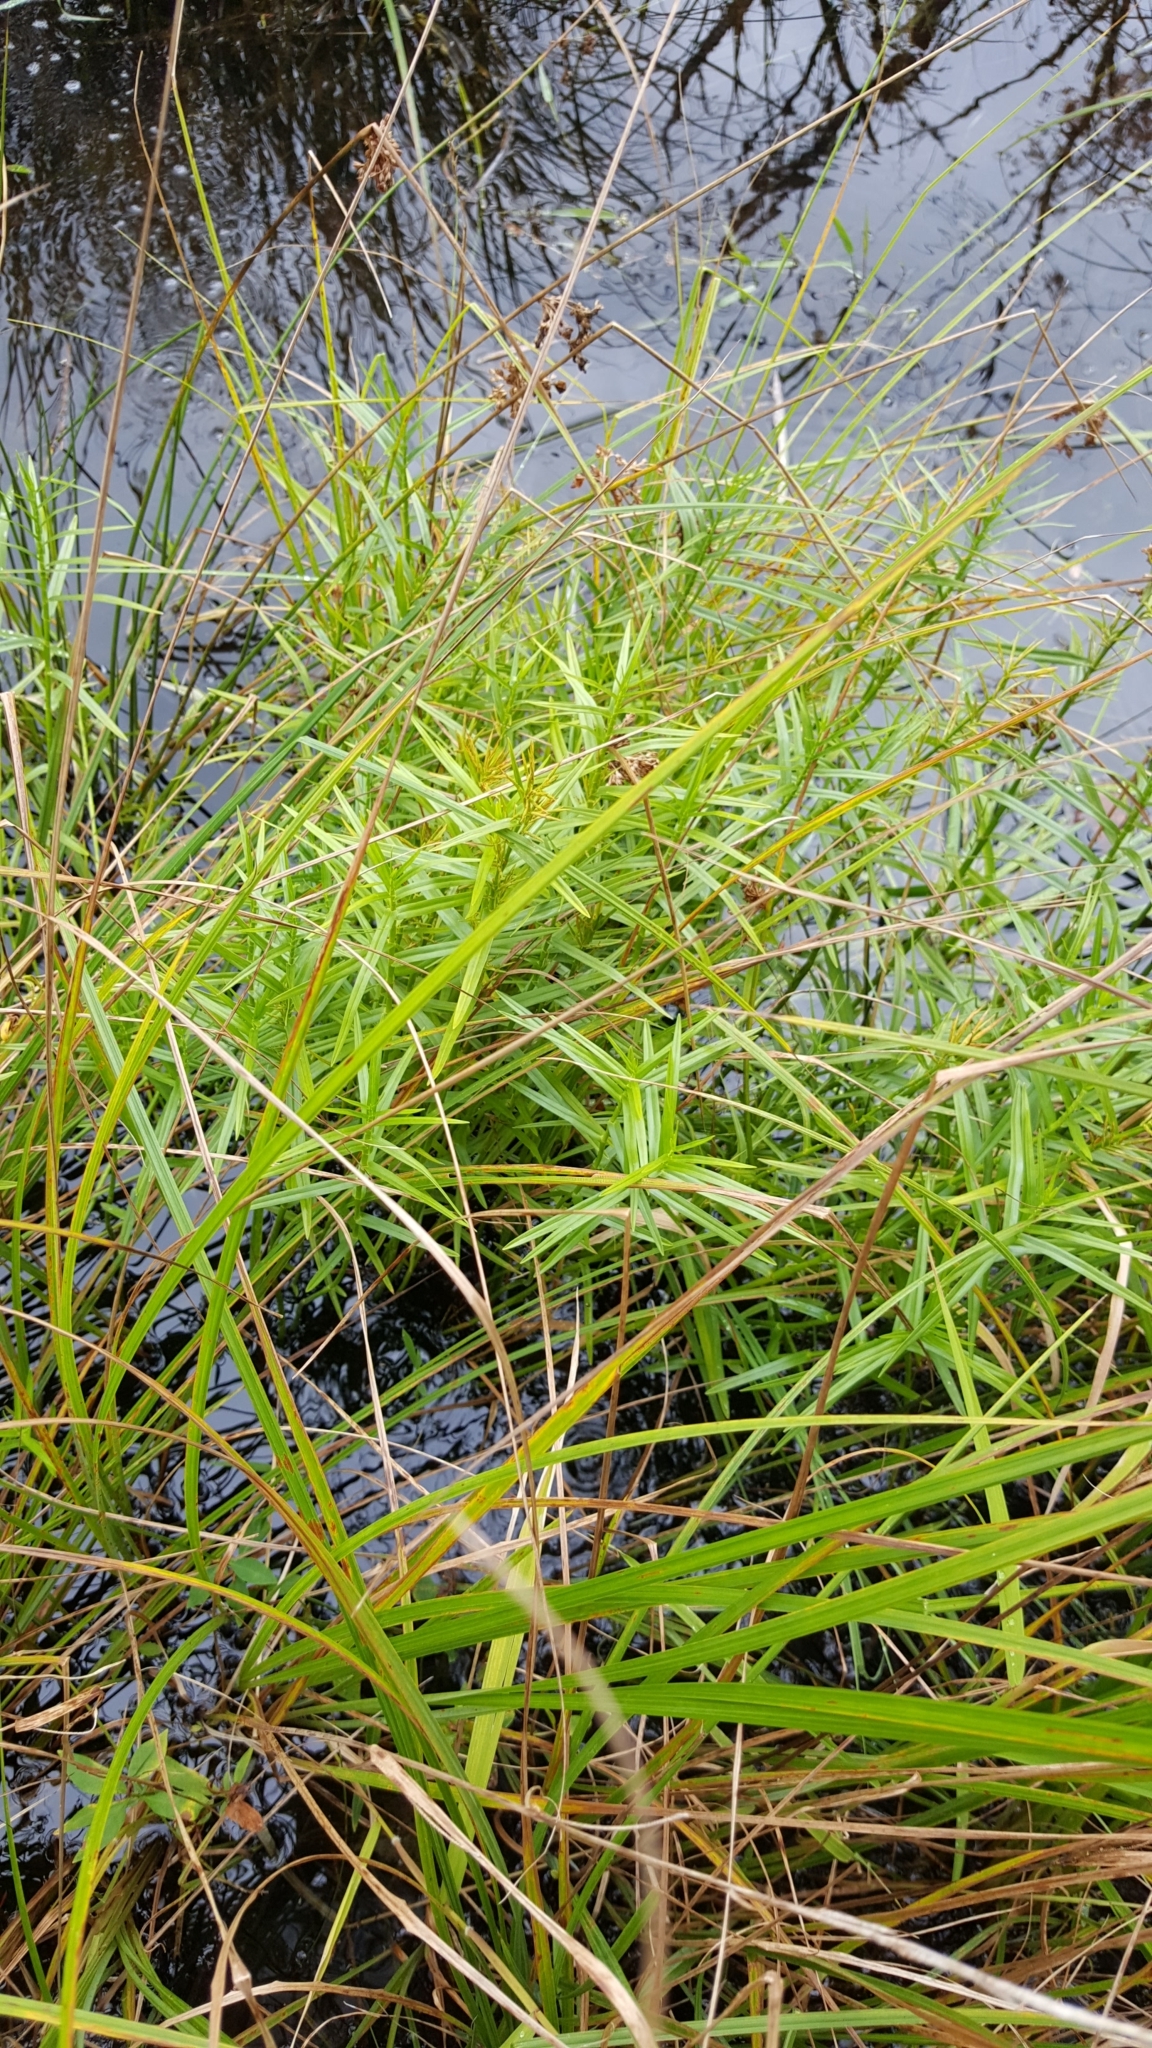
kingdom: Plantae
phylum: Tracheophyta
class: Liliopsida
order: Poales
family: Cyperaceae
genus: Dulichium
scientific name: Dulichium arundinaceum
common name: Three-way sedge
